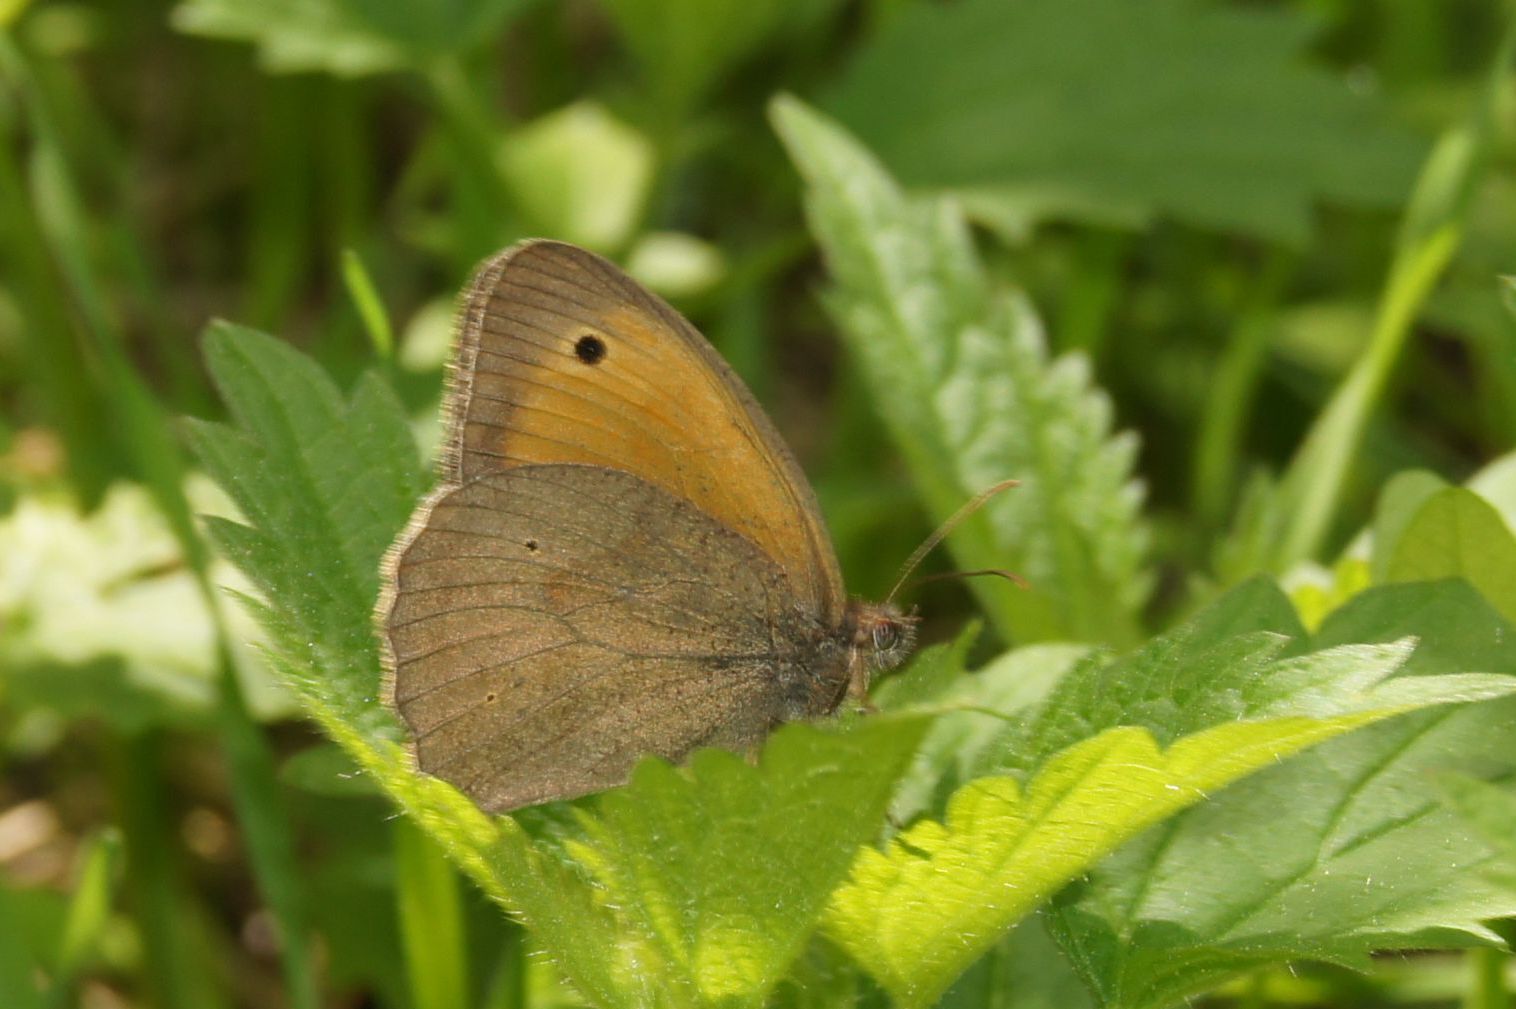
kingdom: Animalia
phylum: Arthropoda
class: Insecta
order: Lepidoptera
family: Nymphalidae
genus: Maniola
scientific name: Maniola jurtina
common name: Meadow brown
